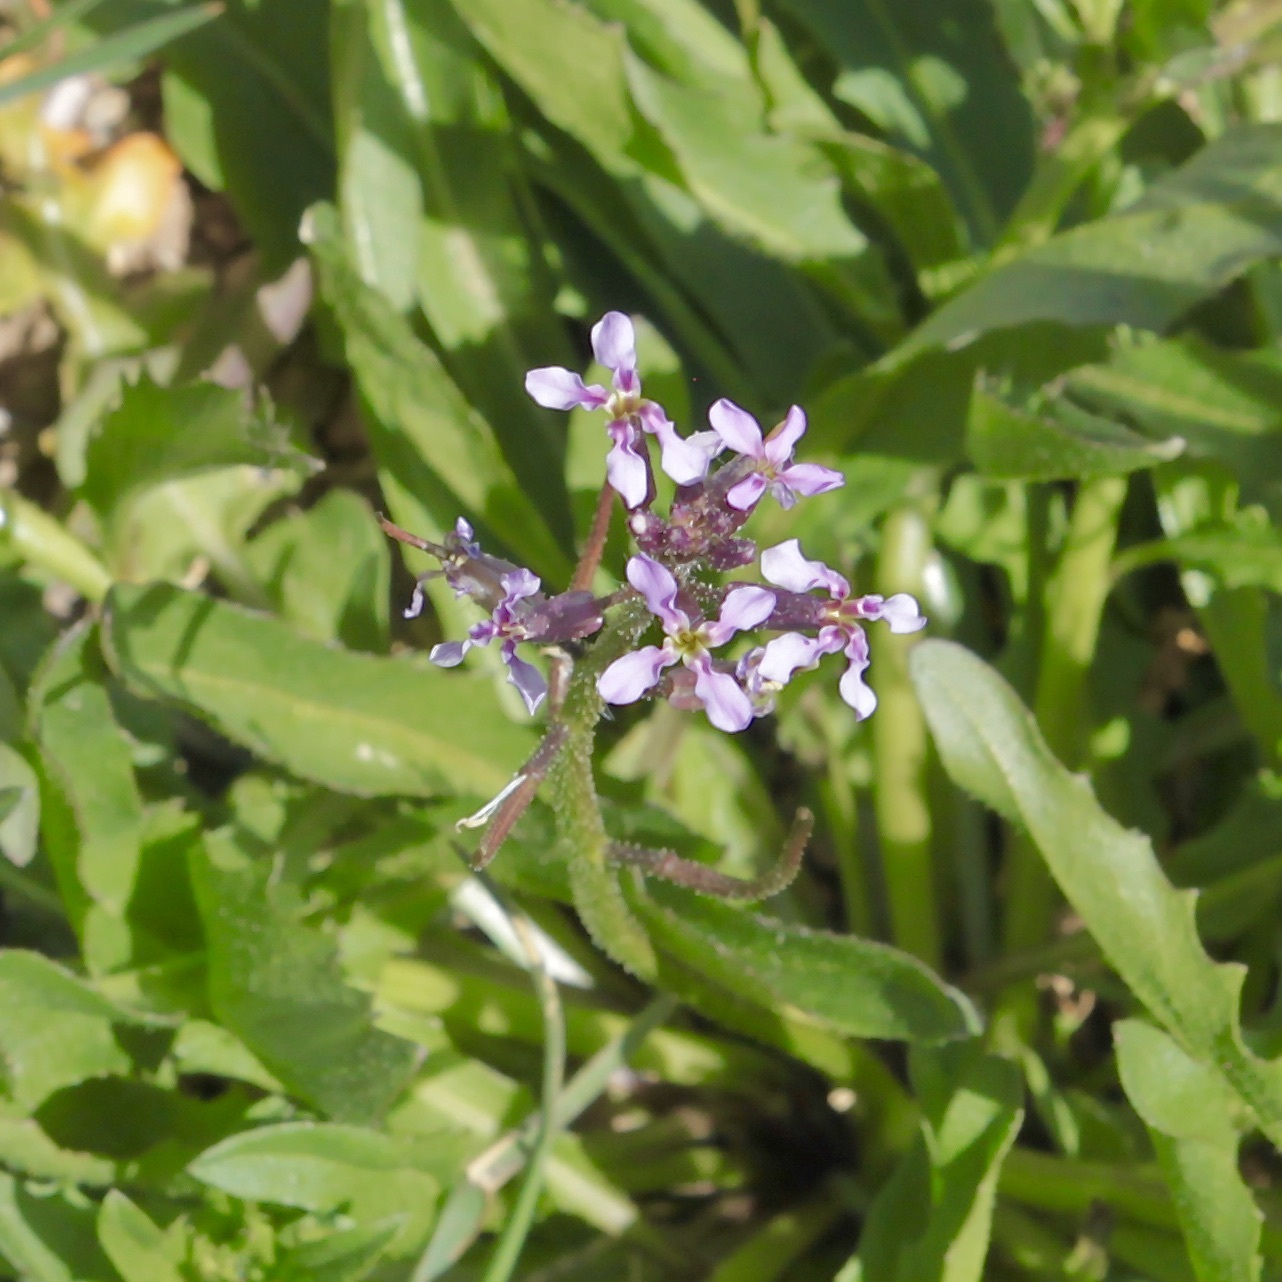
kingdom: Plantae
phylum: Tracheophyta
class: Magnoliopsida
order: Brassicales
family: Brassicaceae
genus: Chorispora
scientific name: Chorispora tenella
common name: Crossflower
